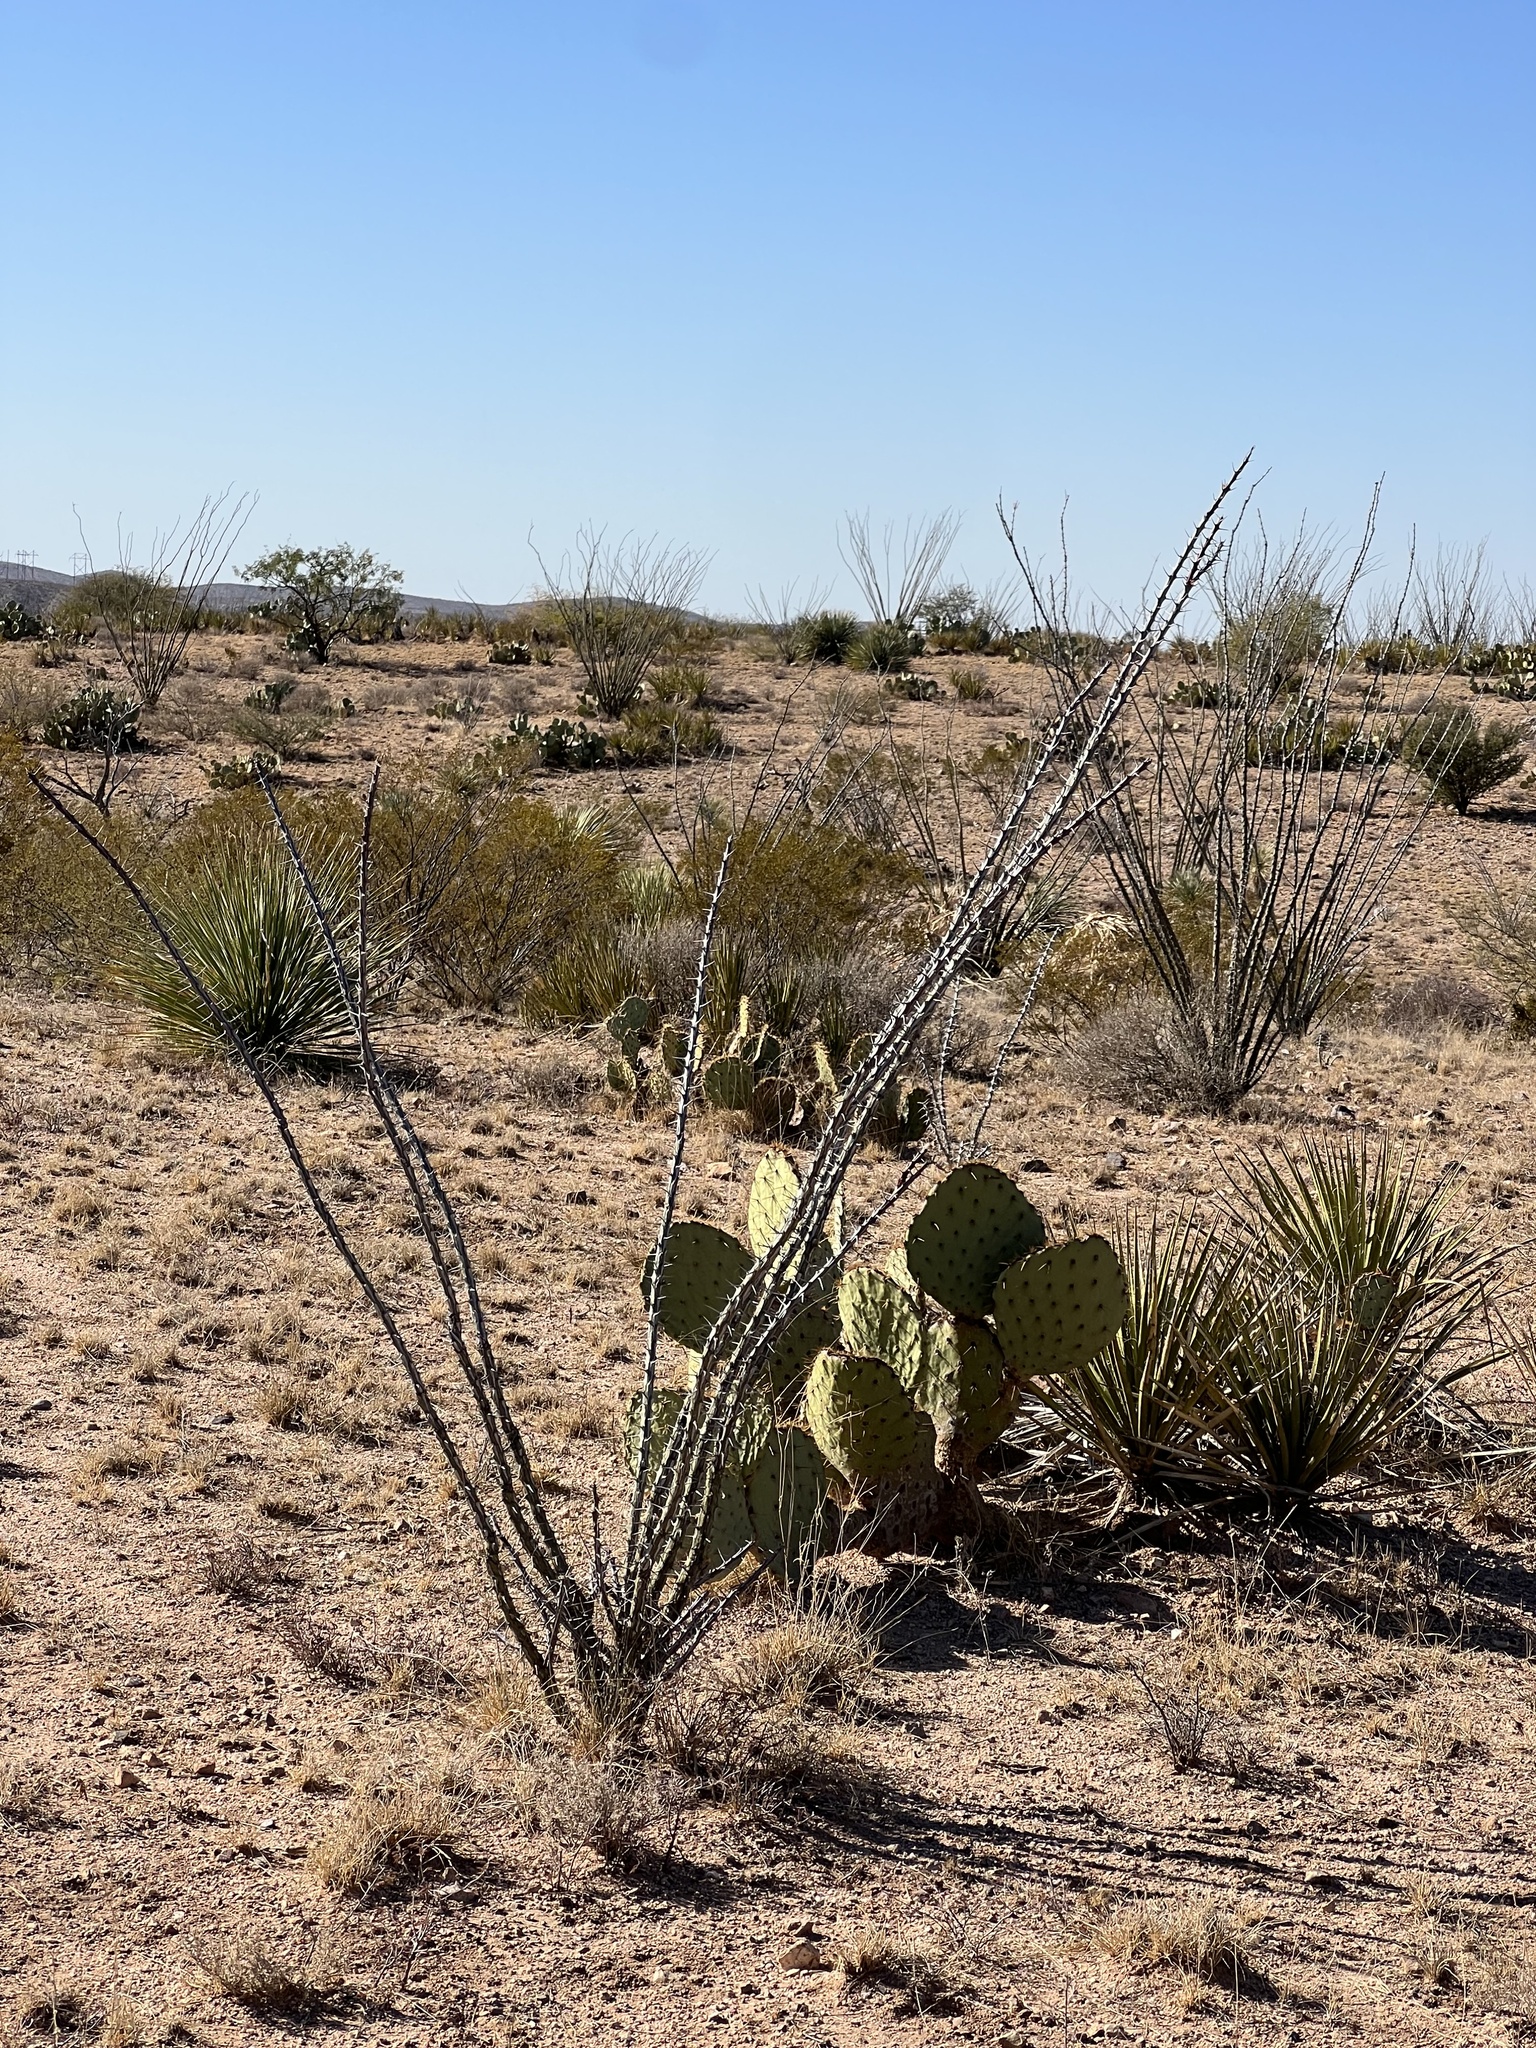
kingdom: Plantae
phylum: Tracheophyta
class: Magnoliopsida
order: Ericales
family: Fouquieriaceae
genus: Fouquieria
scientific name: Fouquieria splendens
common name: Vine-cactus
